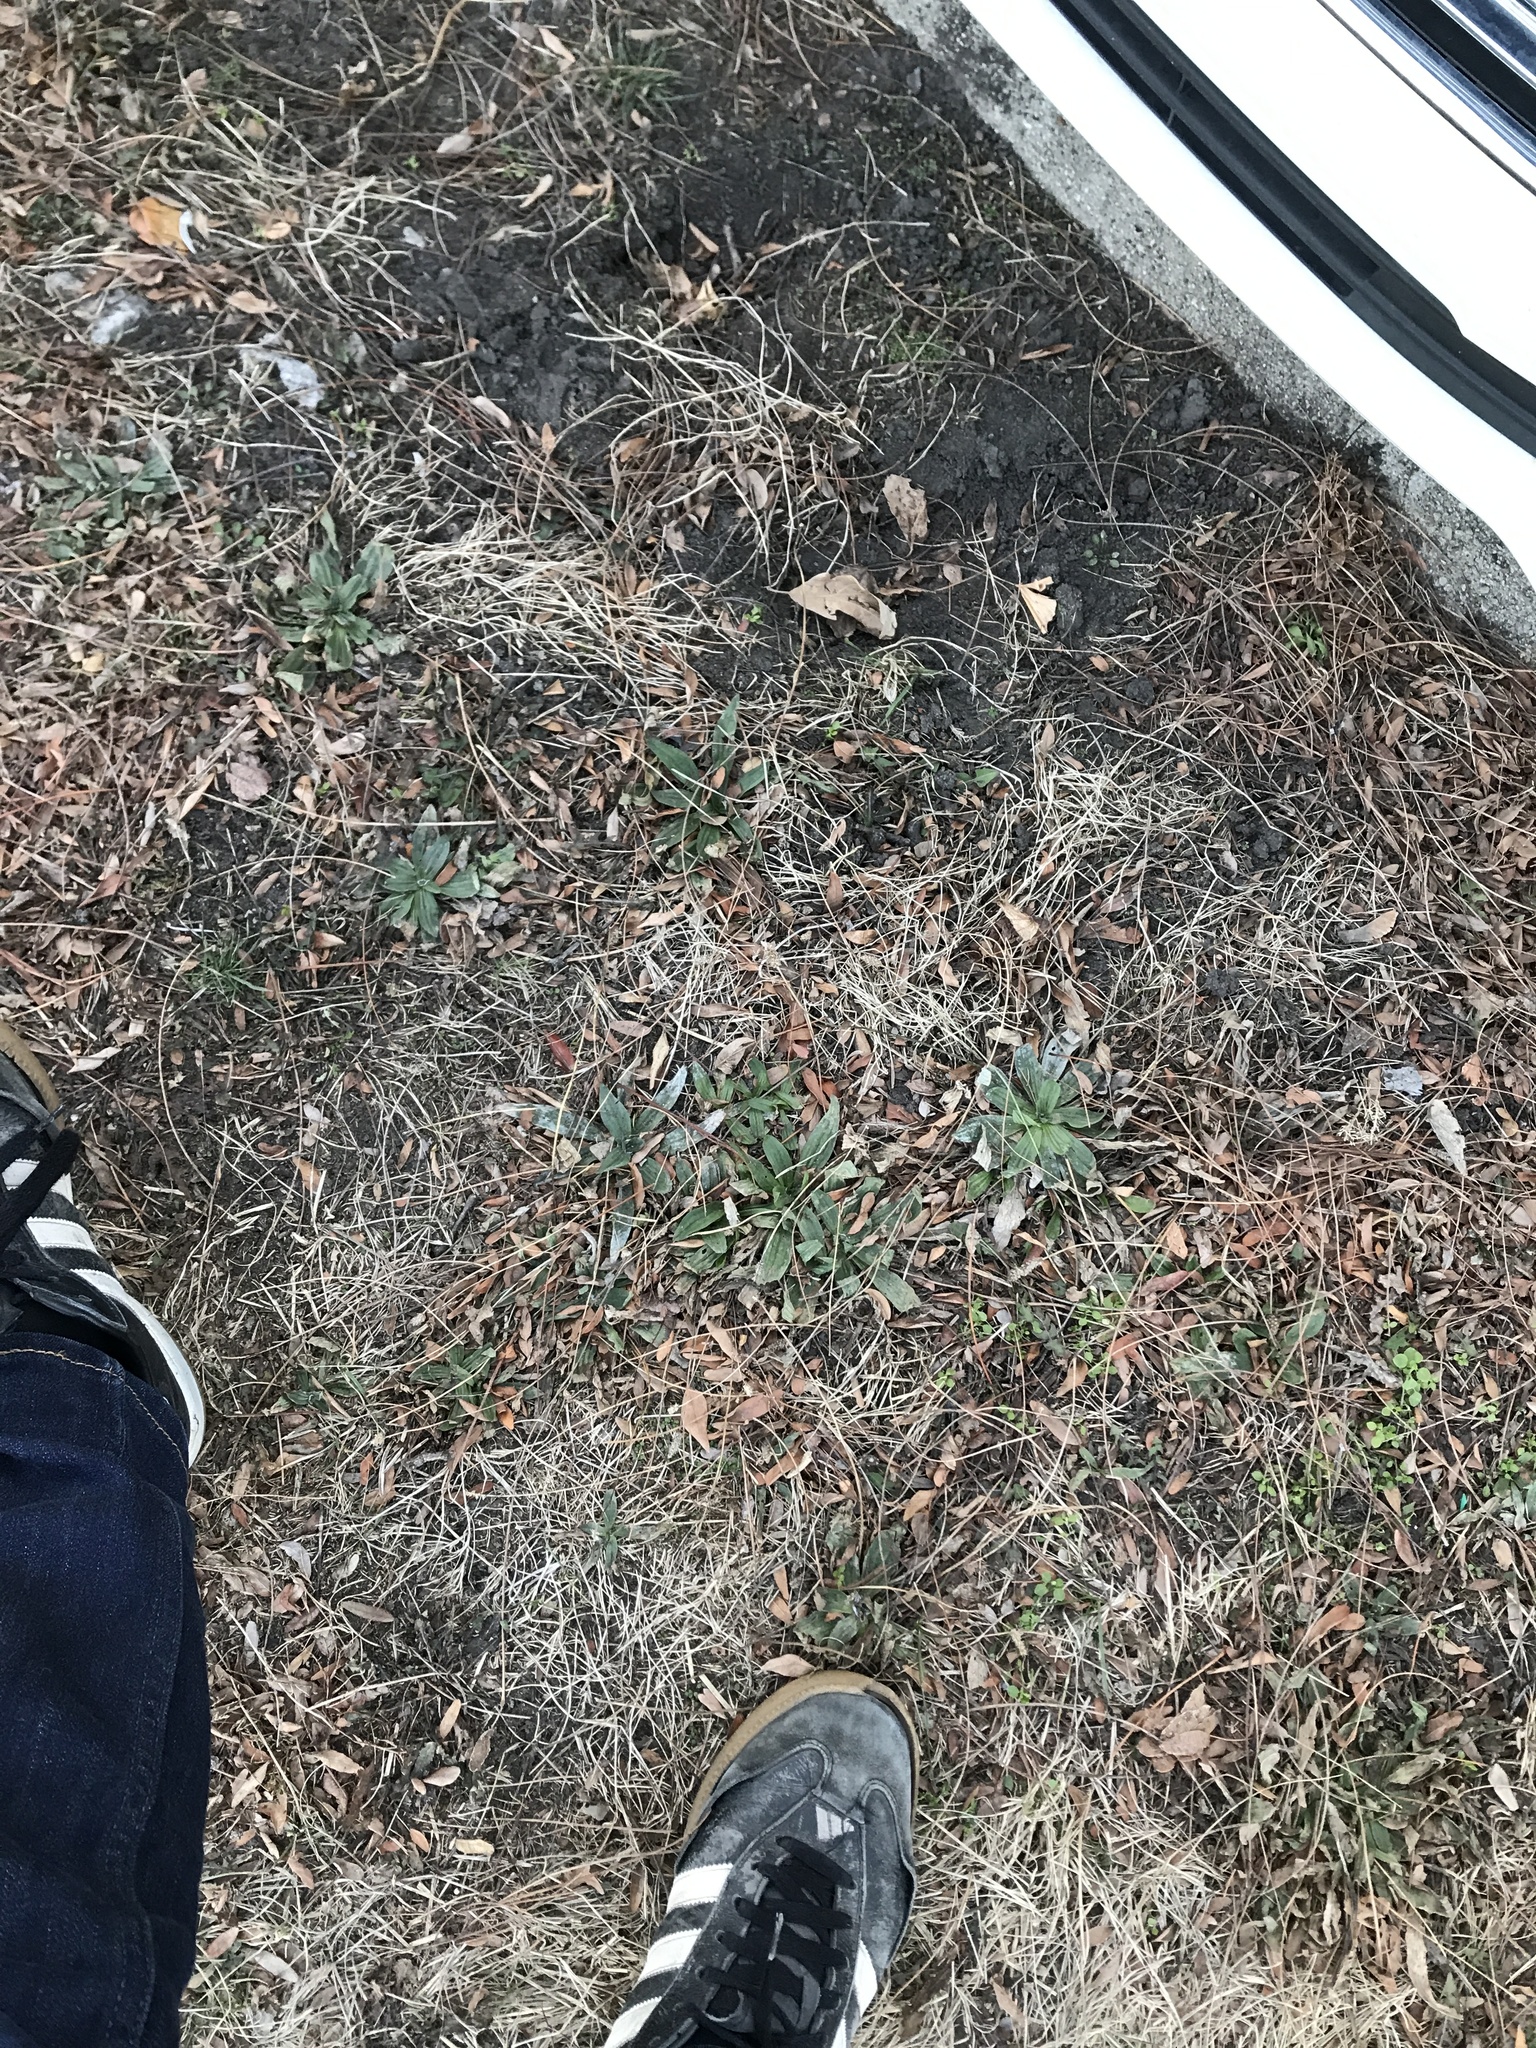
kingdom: Plantae
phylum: Tracheophyta
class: Magnoliopsida
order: Lamiales
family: Plantaginaceae
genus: Plantago
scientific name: Plantago lanceolata
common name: Ribwort plantain
